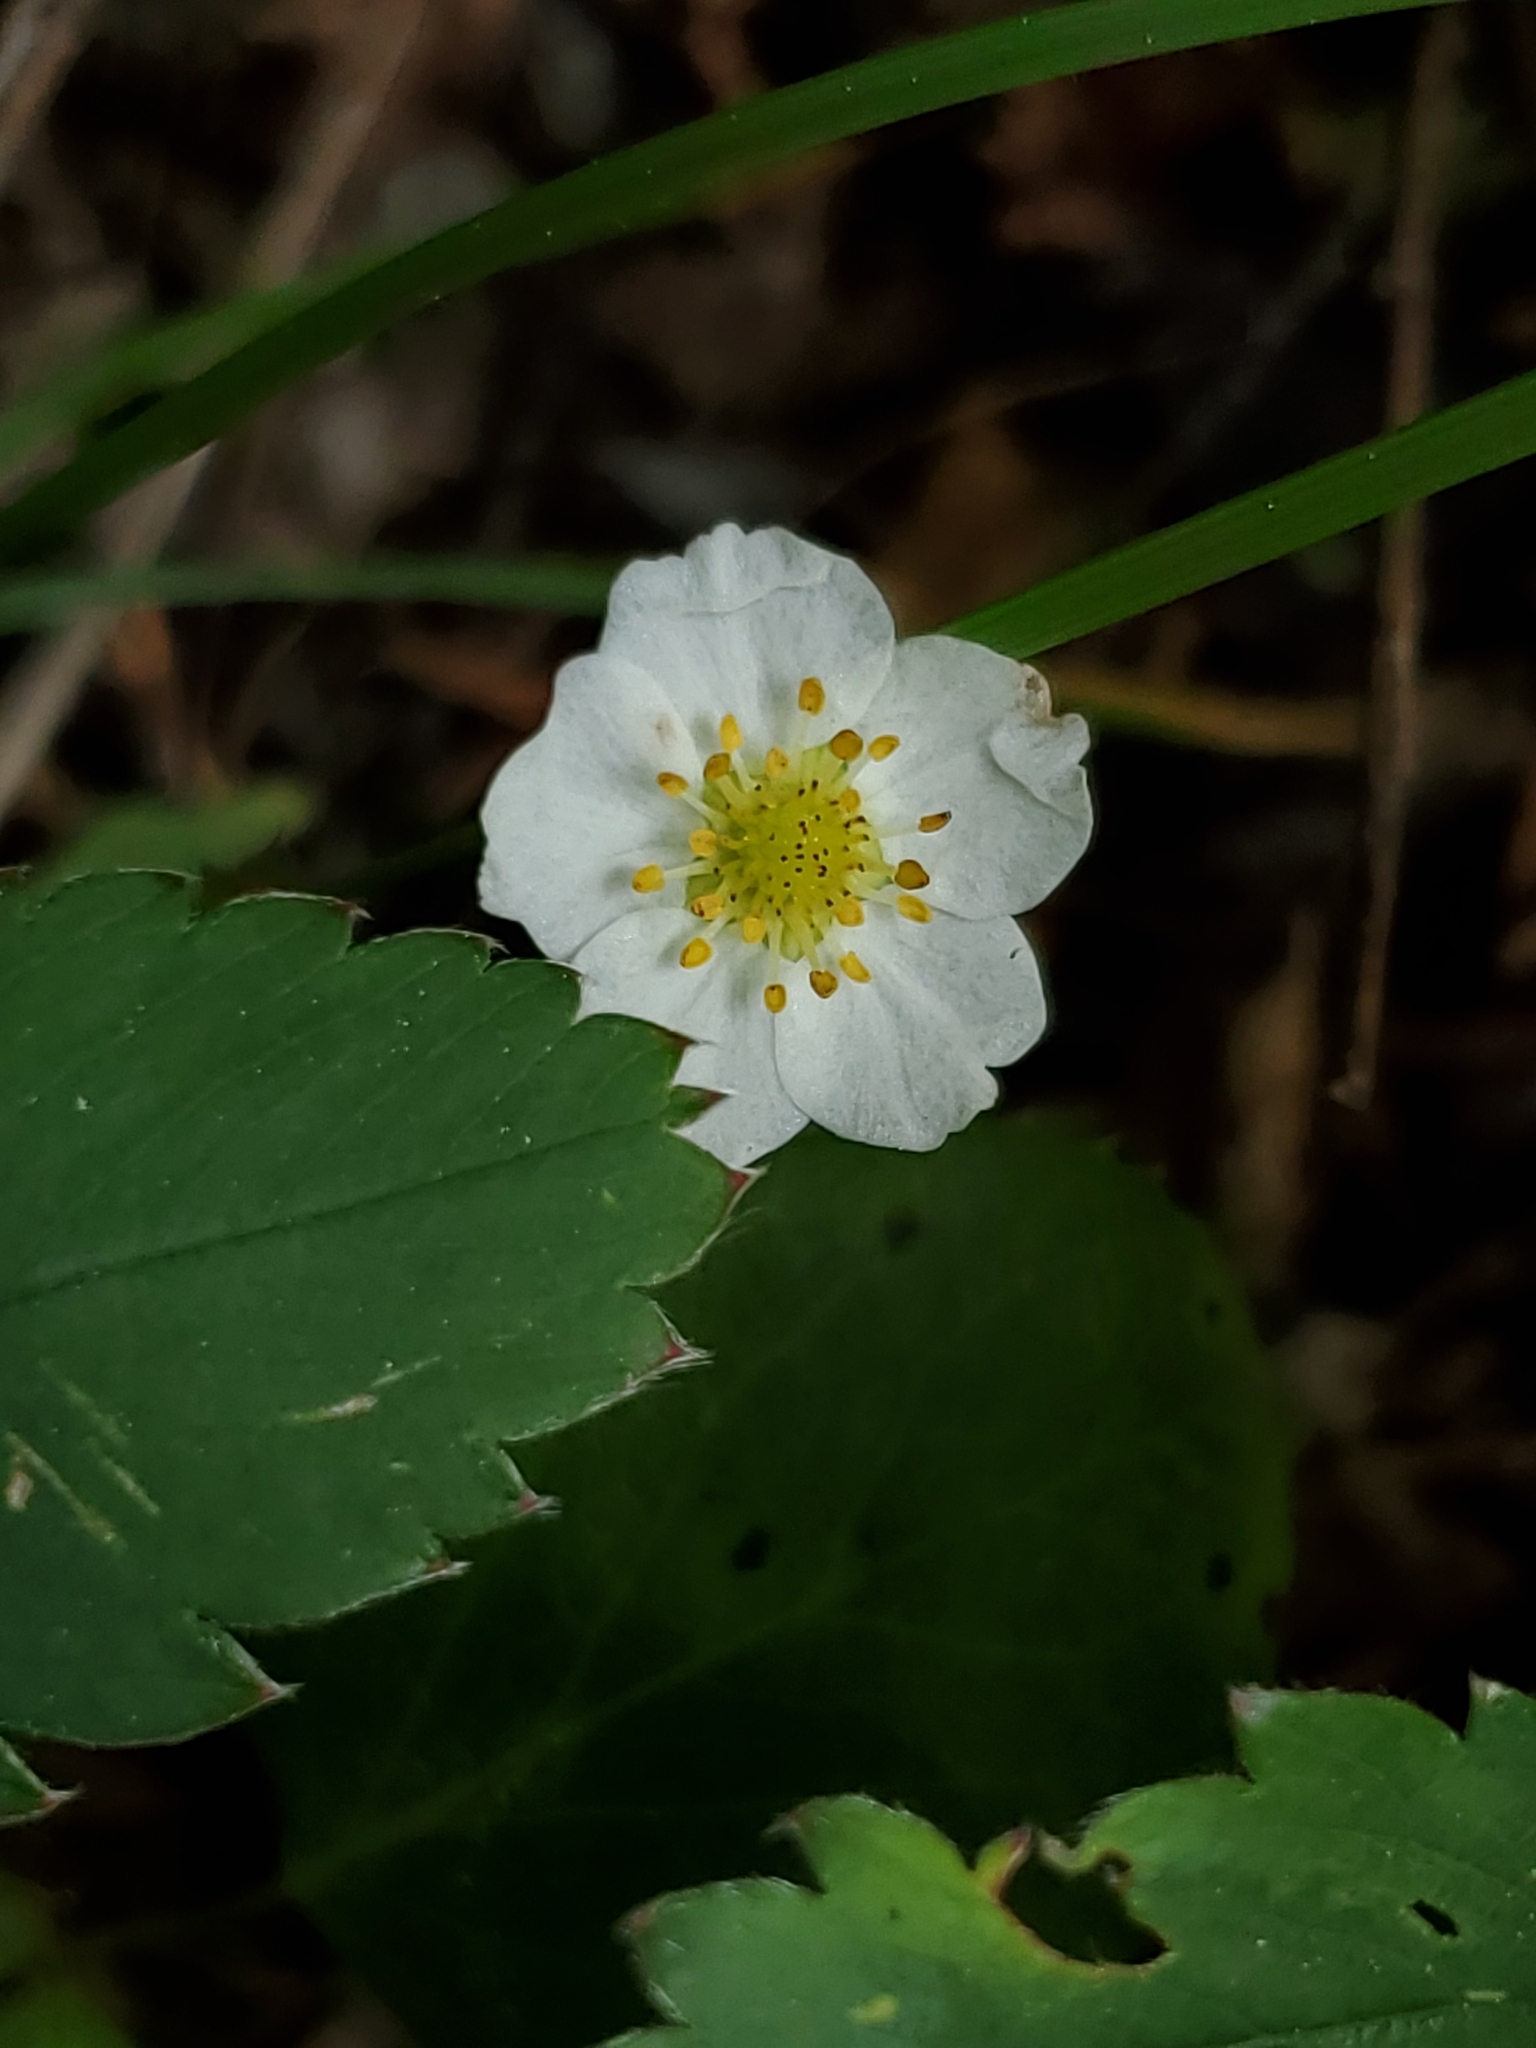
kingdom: Plantae
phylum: Tracheophyta
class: Magnoliopsida
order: Rosales
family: Rosaceae
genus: Fragaria
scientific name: Fragaria virginiana
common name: Thickleaved wild strawberry
